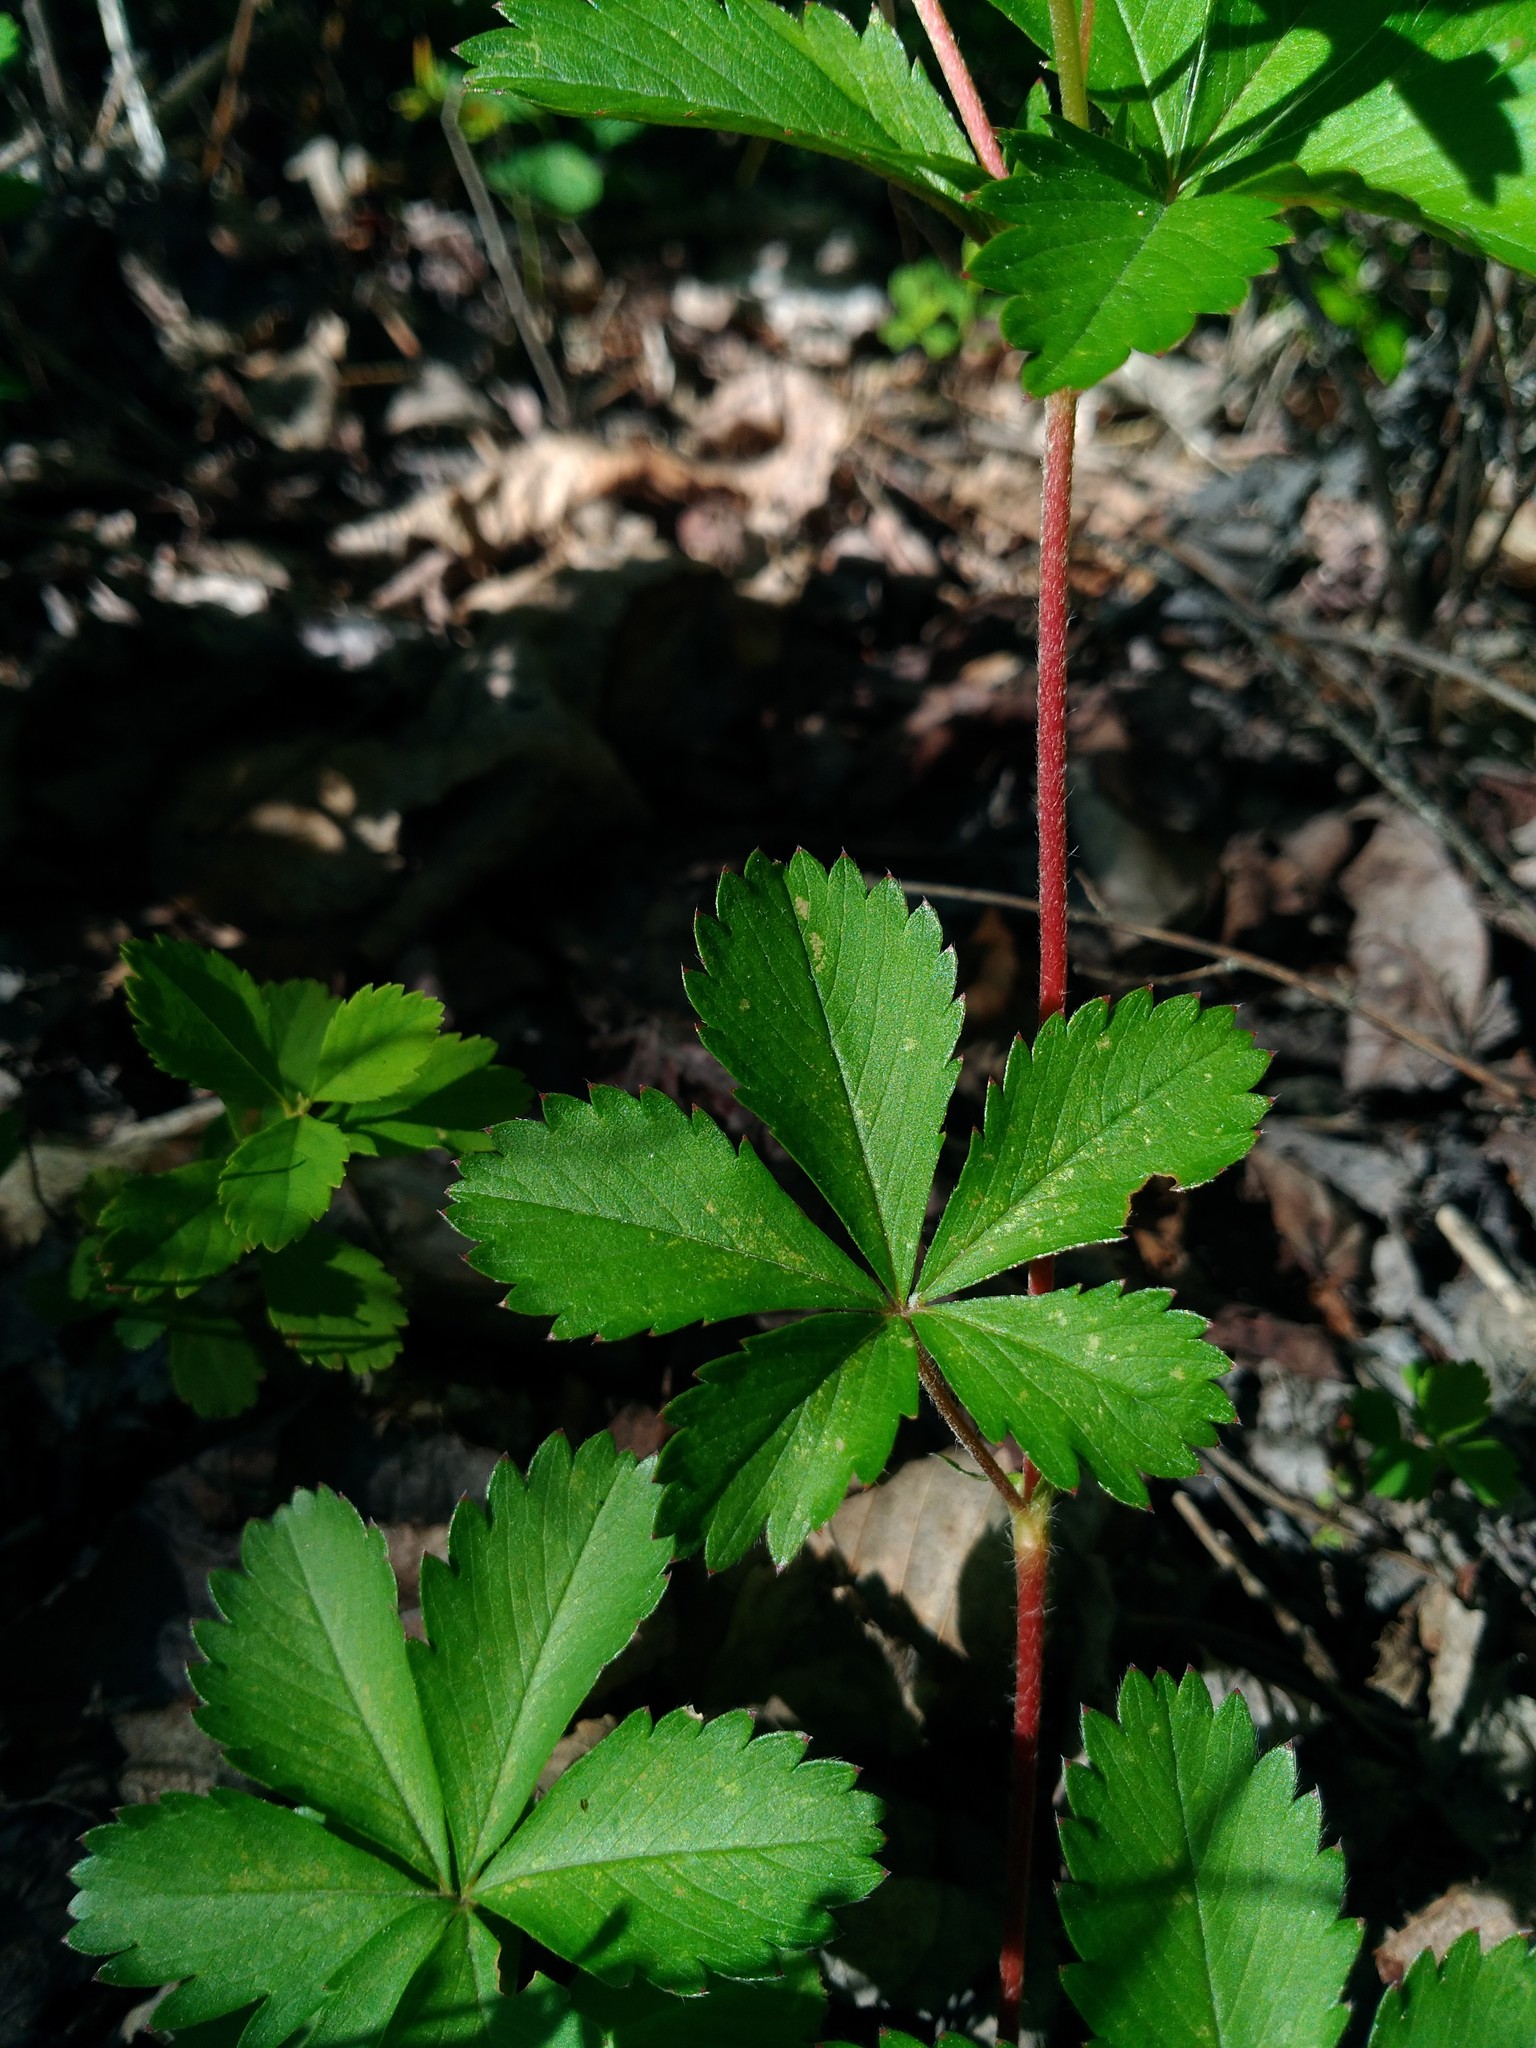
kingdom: Plantae
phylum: Tracheophyta
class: Magnoliopsida
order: Rosales
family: Rosaceae
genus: Potentilla
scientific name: Potentilla simplex
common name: Old field cinquefoil
